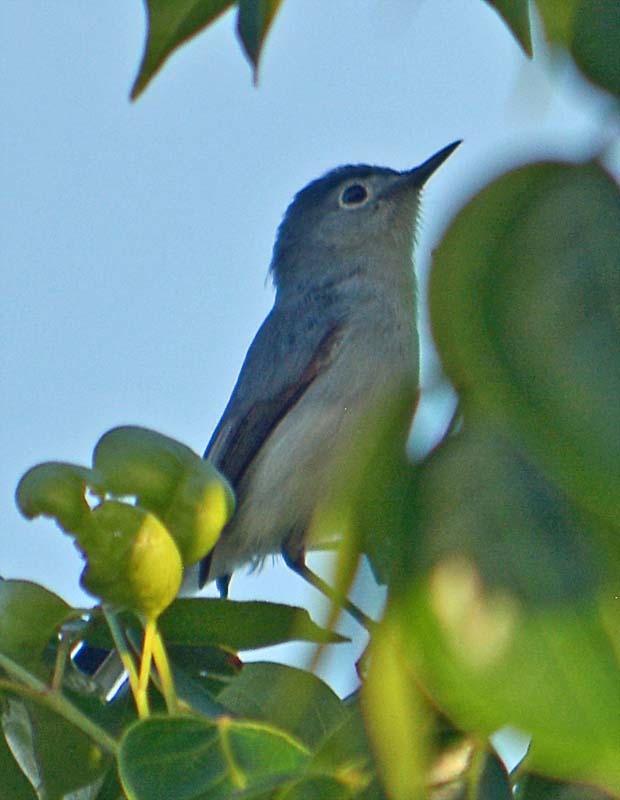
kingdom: Animalia
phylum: Chordata
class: Aves
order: Passeriformes
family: Polioptilidae
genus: Polioptila
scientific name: Polioptila caerulea
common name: Blue-gray gnatcatcher
